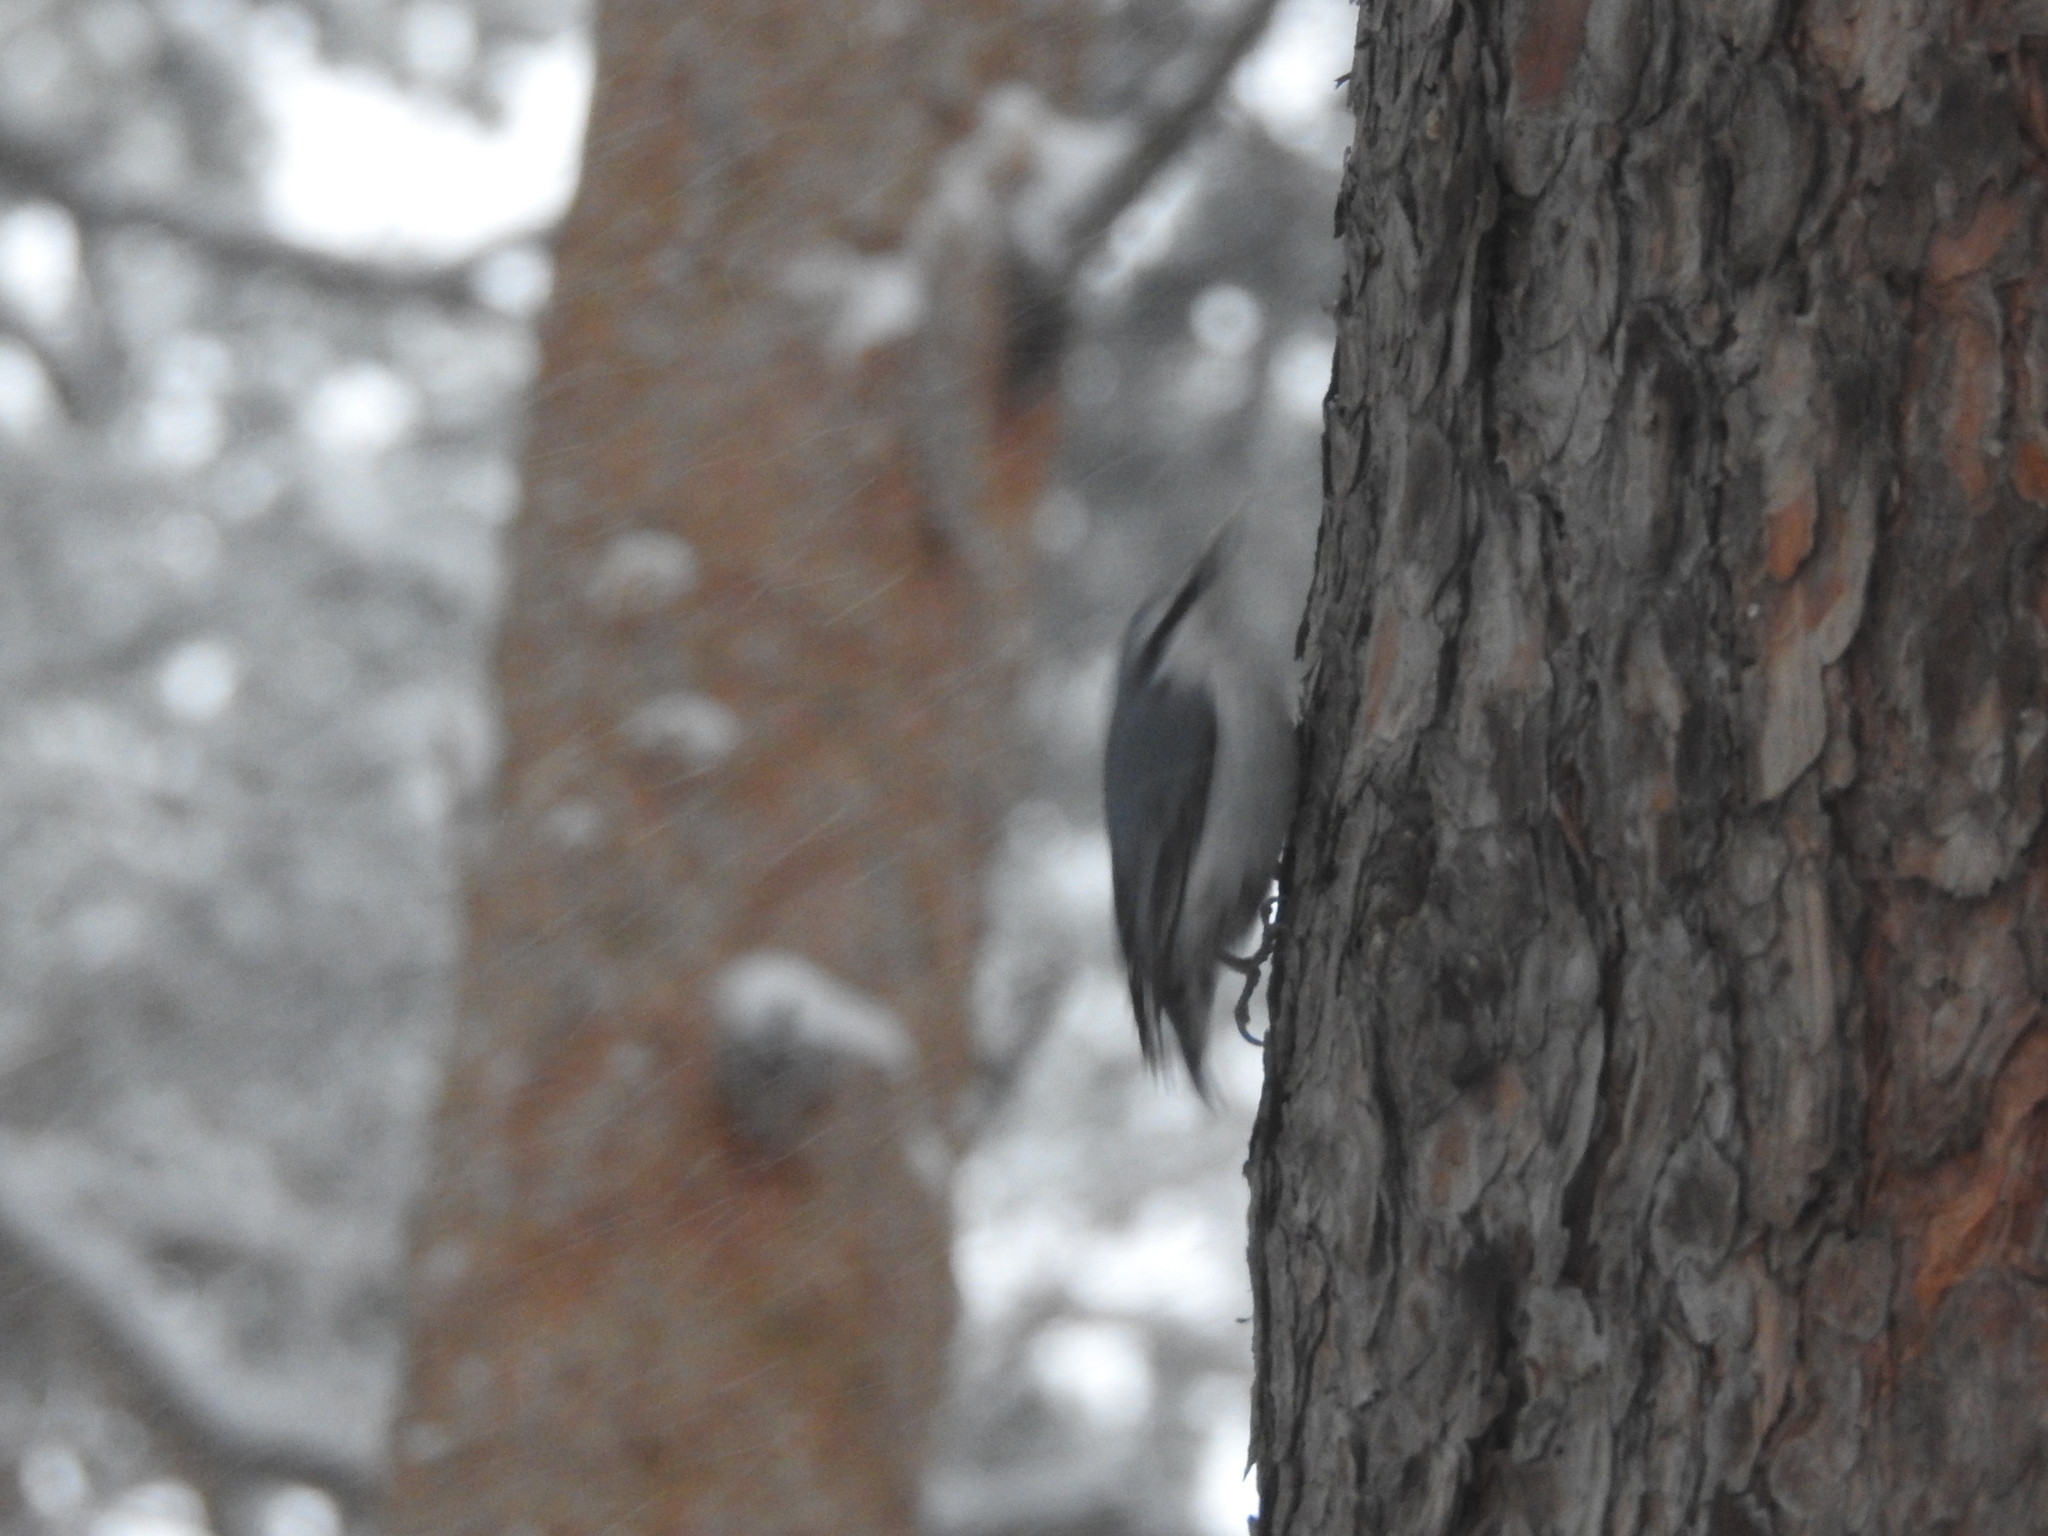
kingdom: Animalia
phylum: Chordata
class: Aves
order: Passeriformes
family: Sittidae
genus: Sitta
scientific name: Sitta europaea
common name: Eurasian nuthatch
